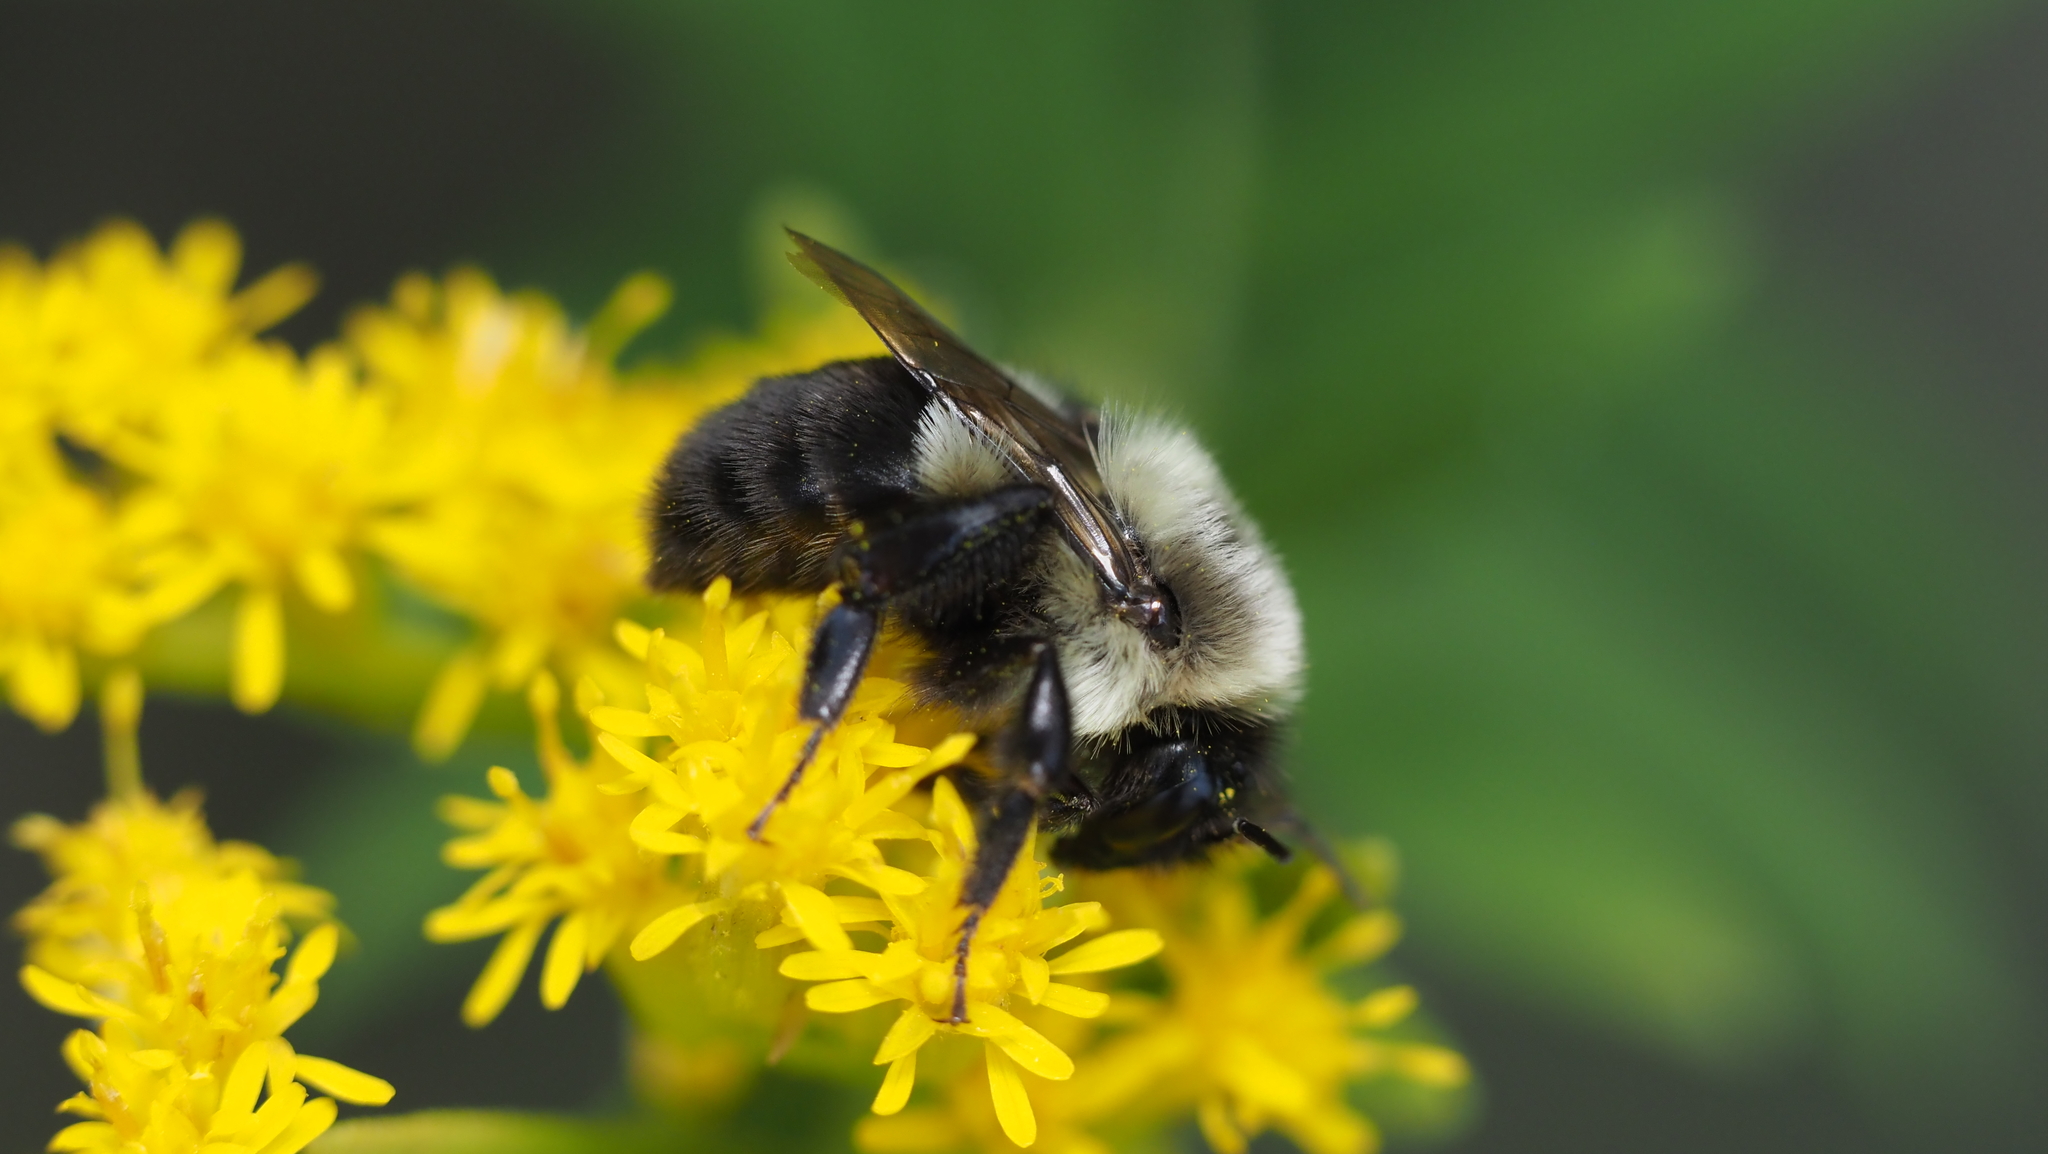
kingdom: Animalia
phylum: Arthropoda
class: Insecta
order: Hymenoptera
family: Apidae
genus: Bombus
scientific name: Bombus impatiens
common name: Common eastern bumble bee
